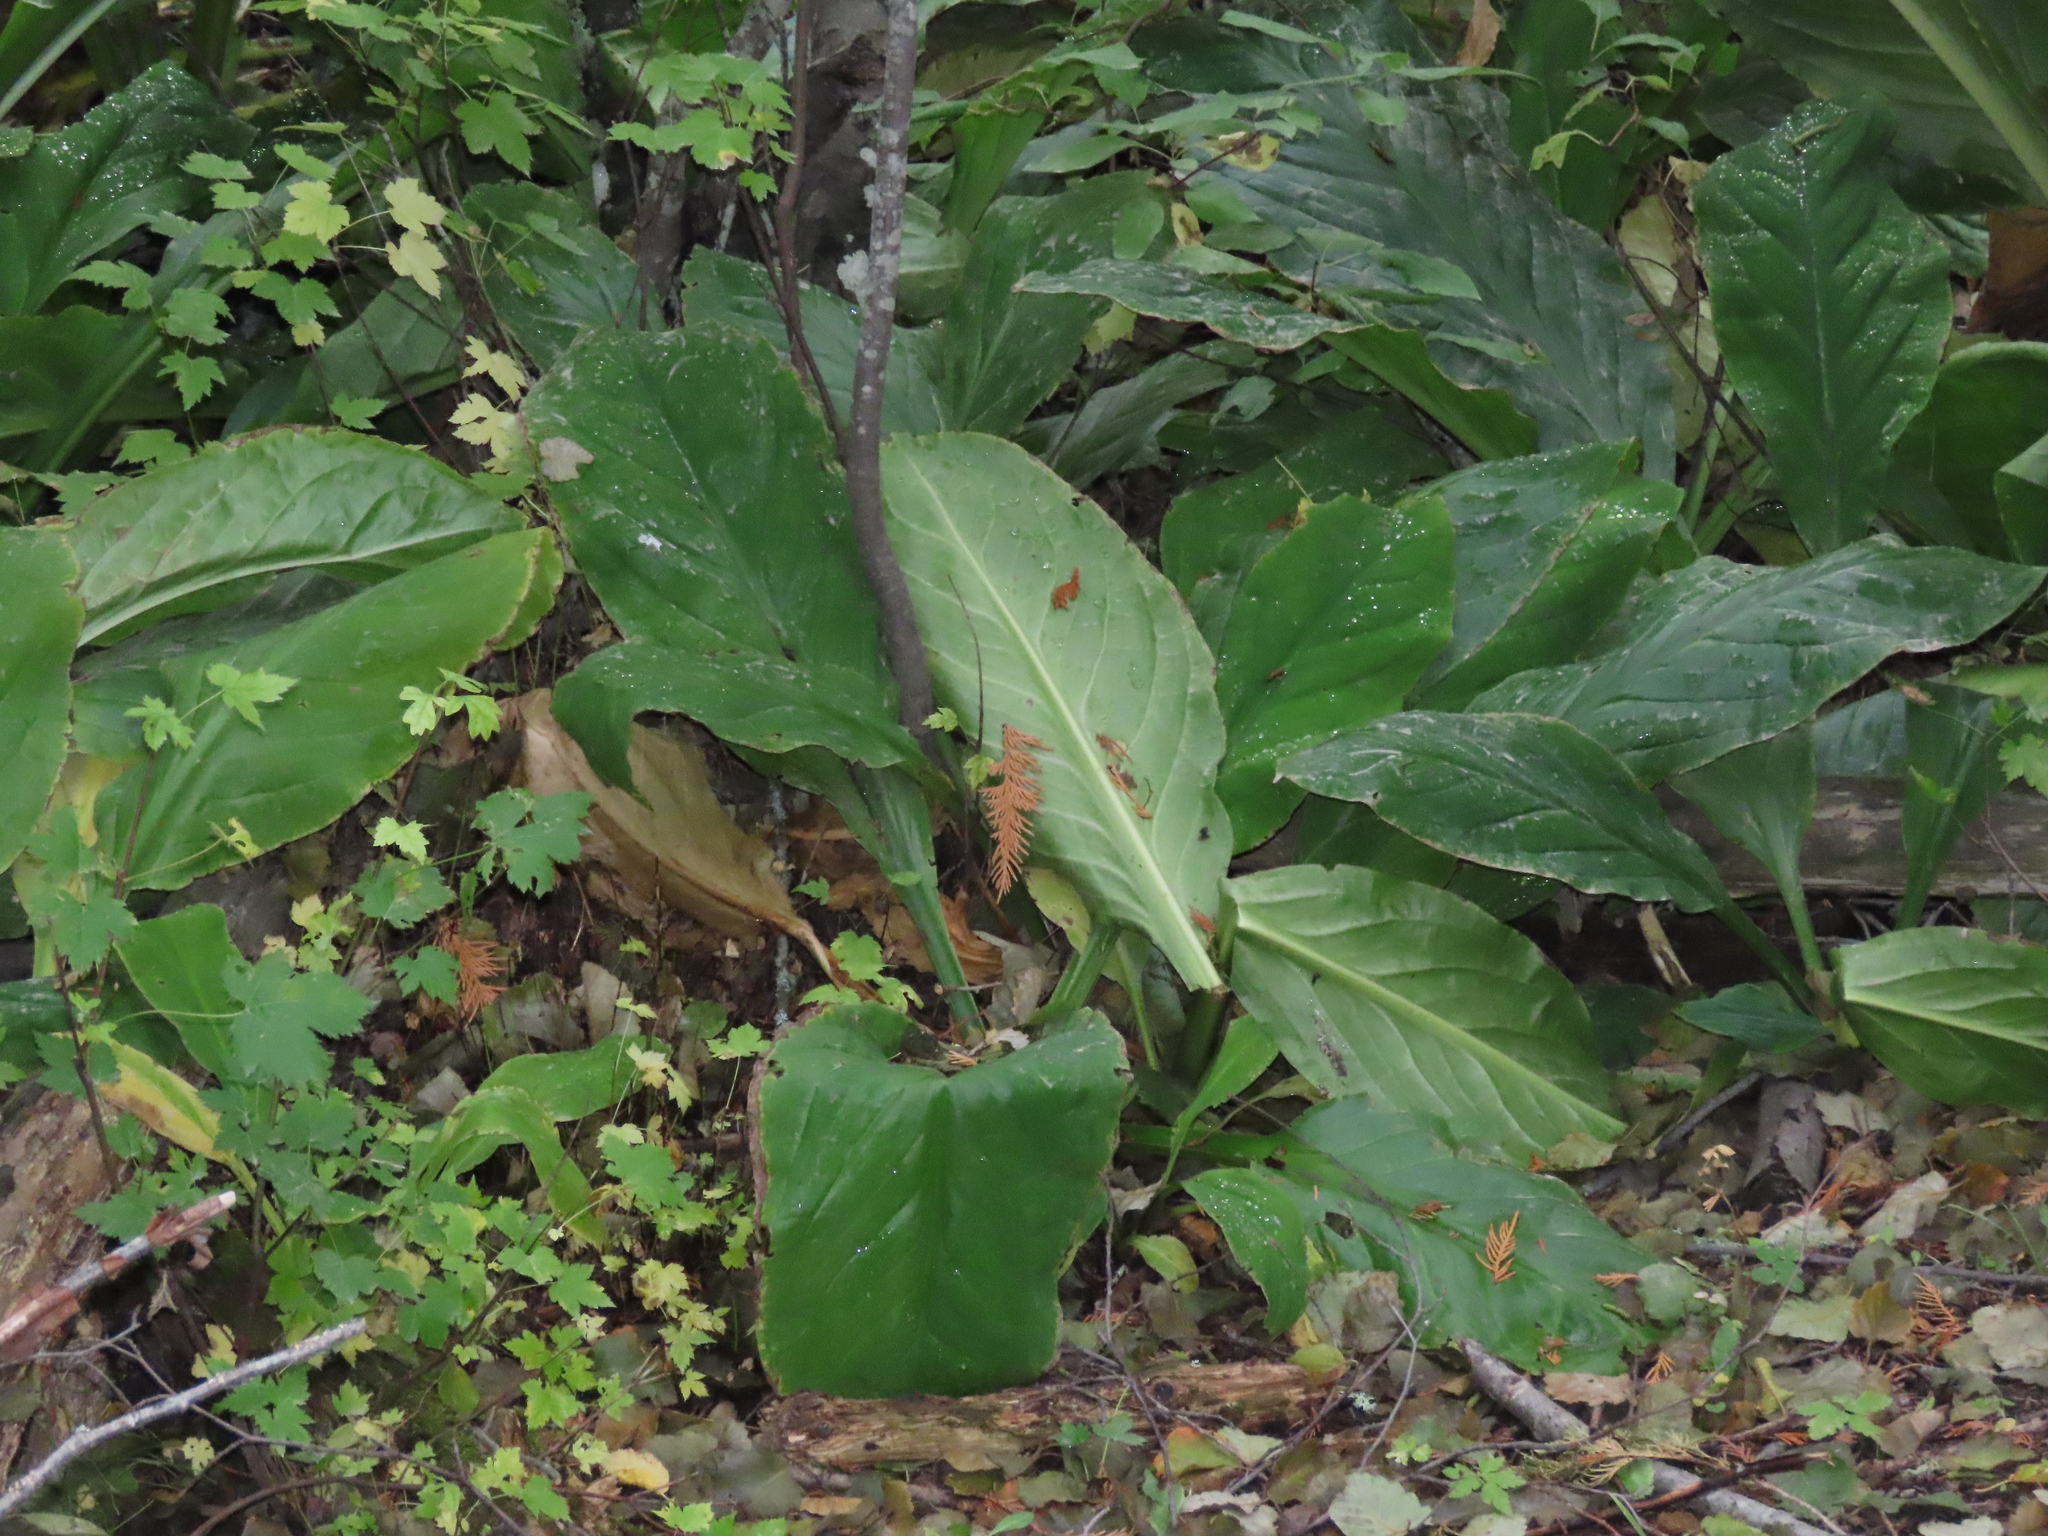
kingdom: Plantae
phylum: Tracheophyta
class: Liliopsida
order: Alismatales
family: Araceae
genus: Lysichiton
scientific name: Lysichiton americanus
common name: American skunk cabbage
